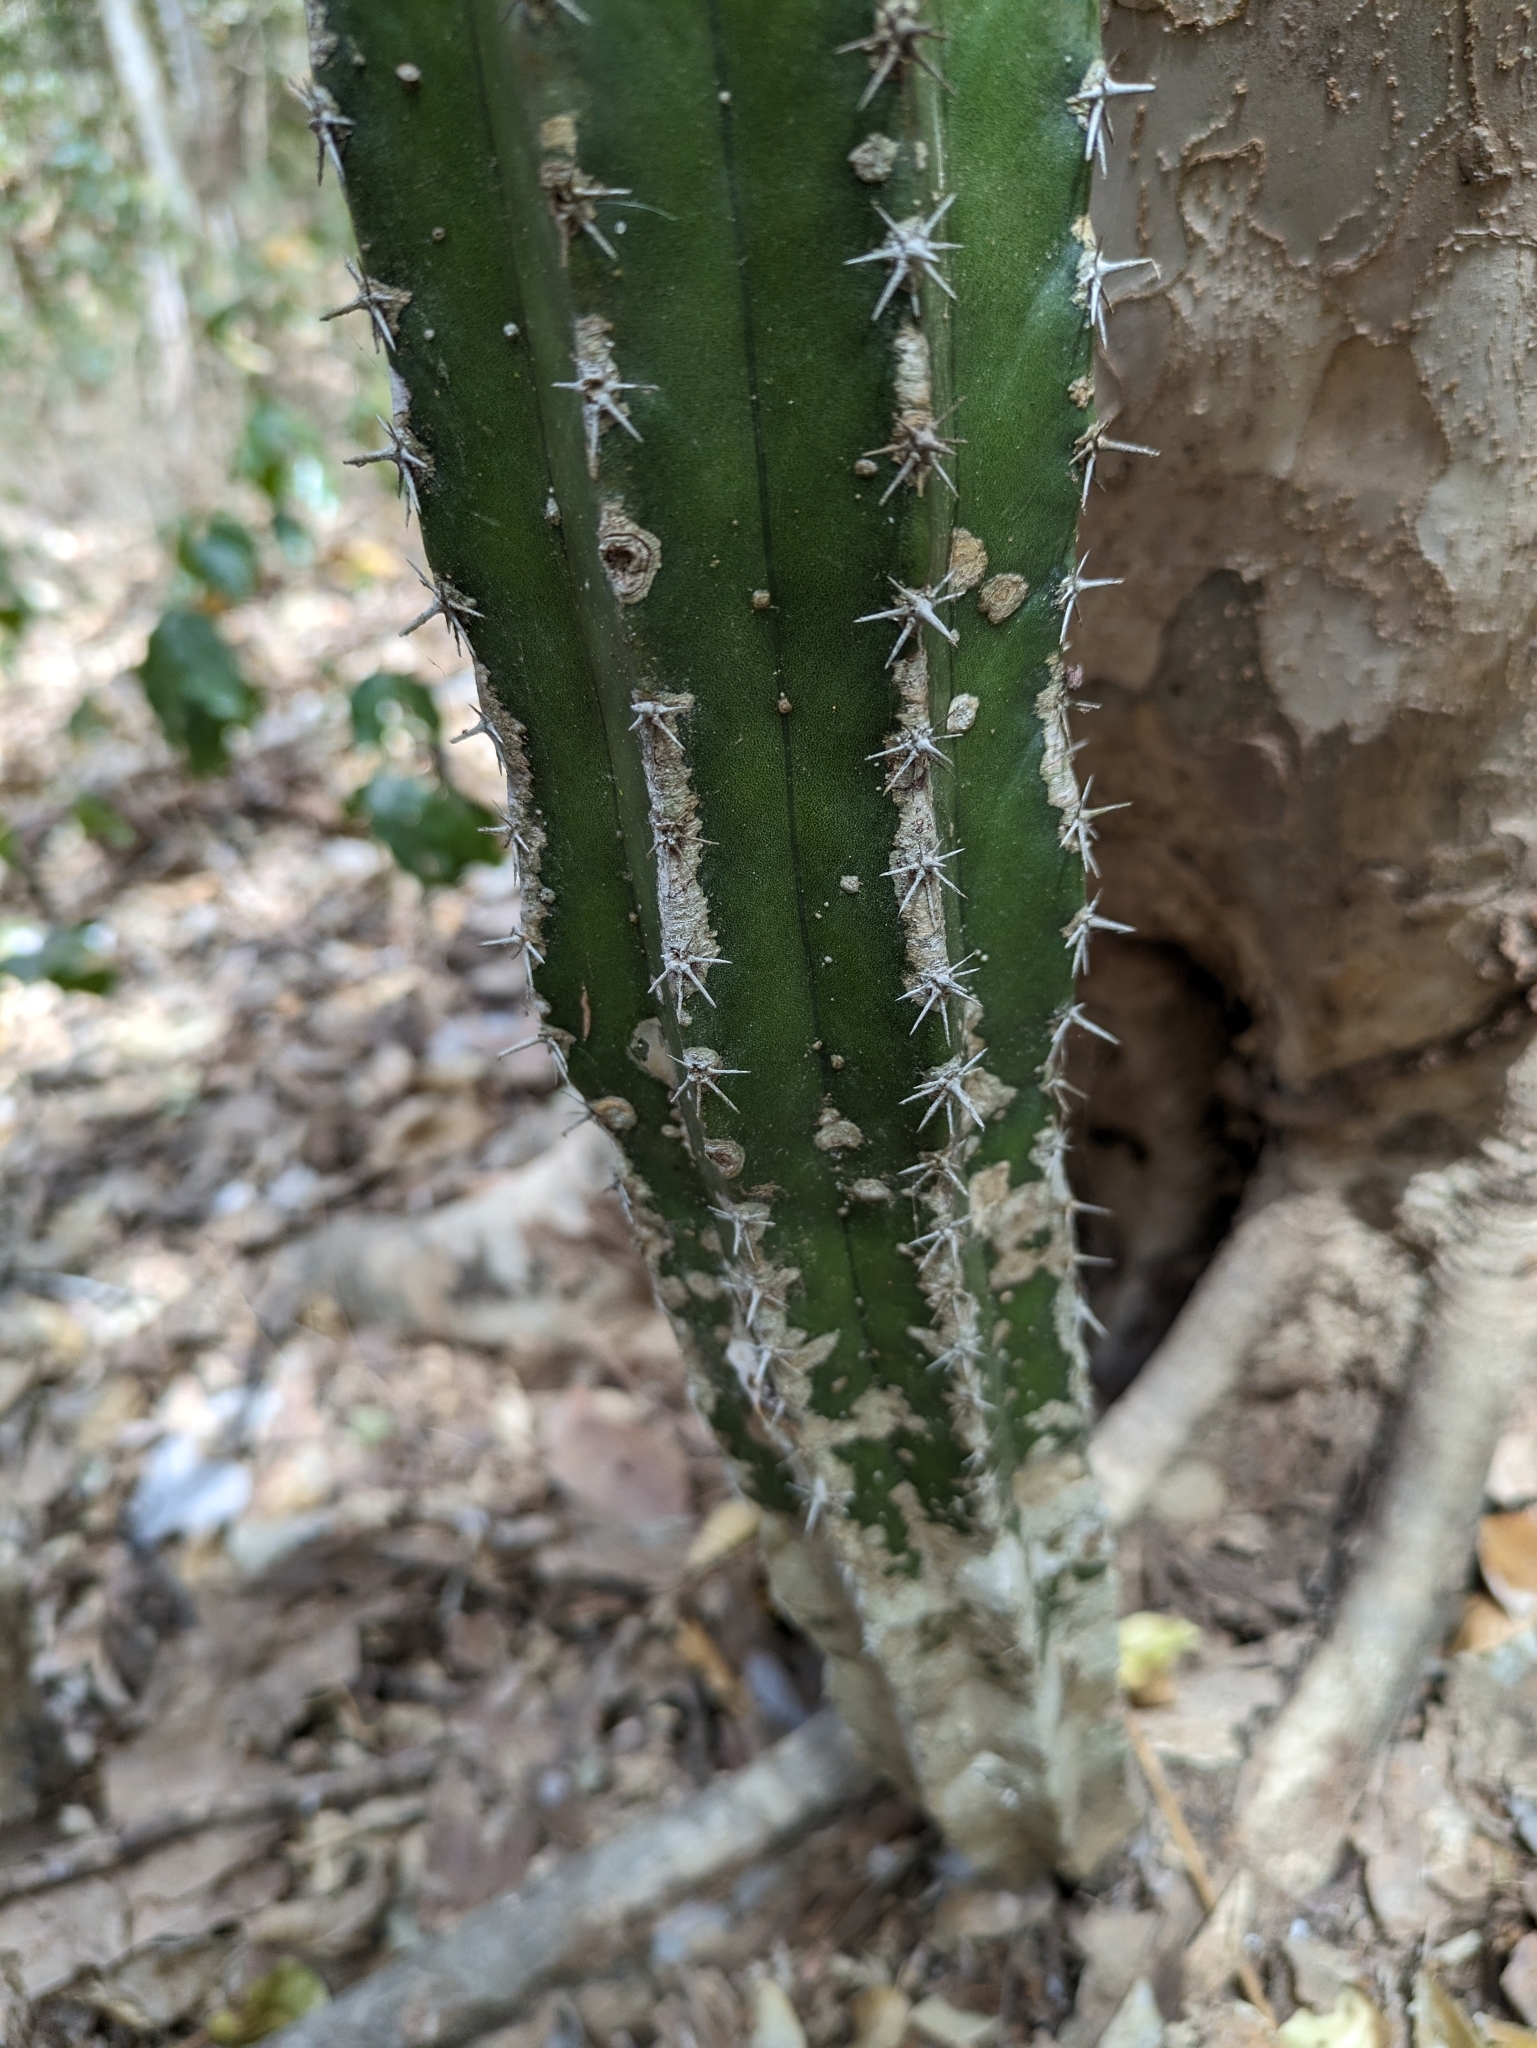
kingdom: Plantae
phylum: Tracheophyta
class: Magnoliopsida
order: Caryophyllales
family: Cactaceae
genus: Pachycereus
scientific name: Pachycereus pecten-aboriginum
